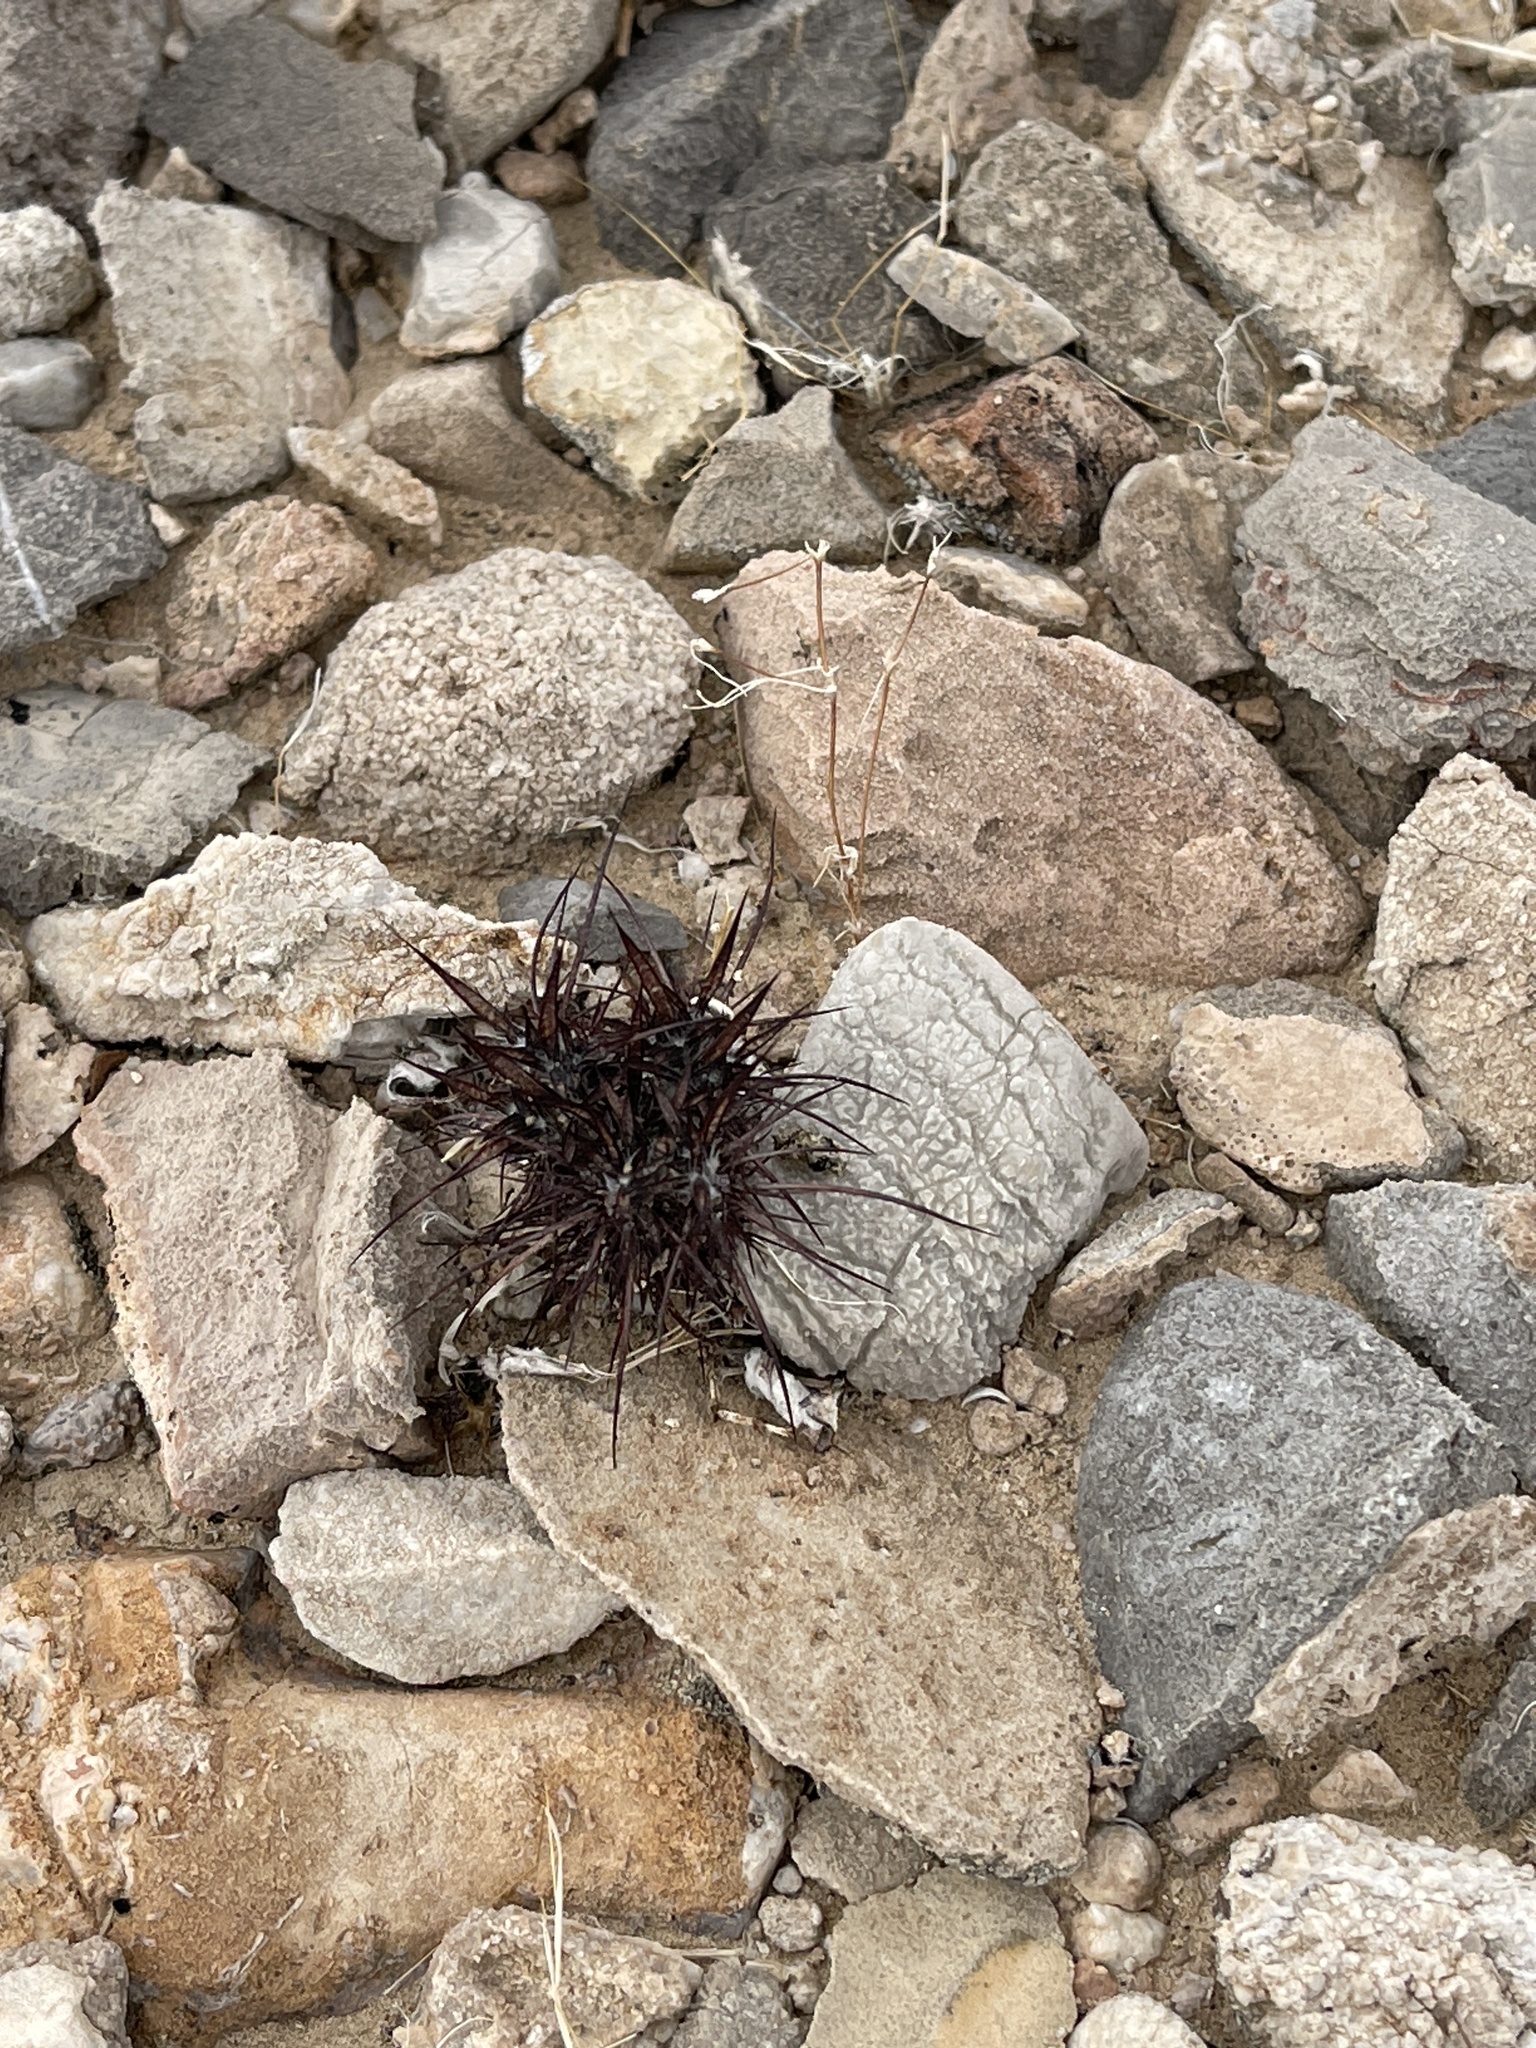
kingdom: Plantae
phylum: Tracheophyta
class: Magnoliopsida
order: Caryophyllales
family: Polygonaceae
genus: Chorizanthe
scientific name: Chorizanthe rigida
